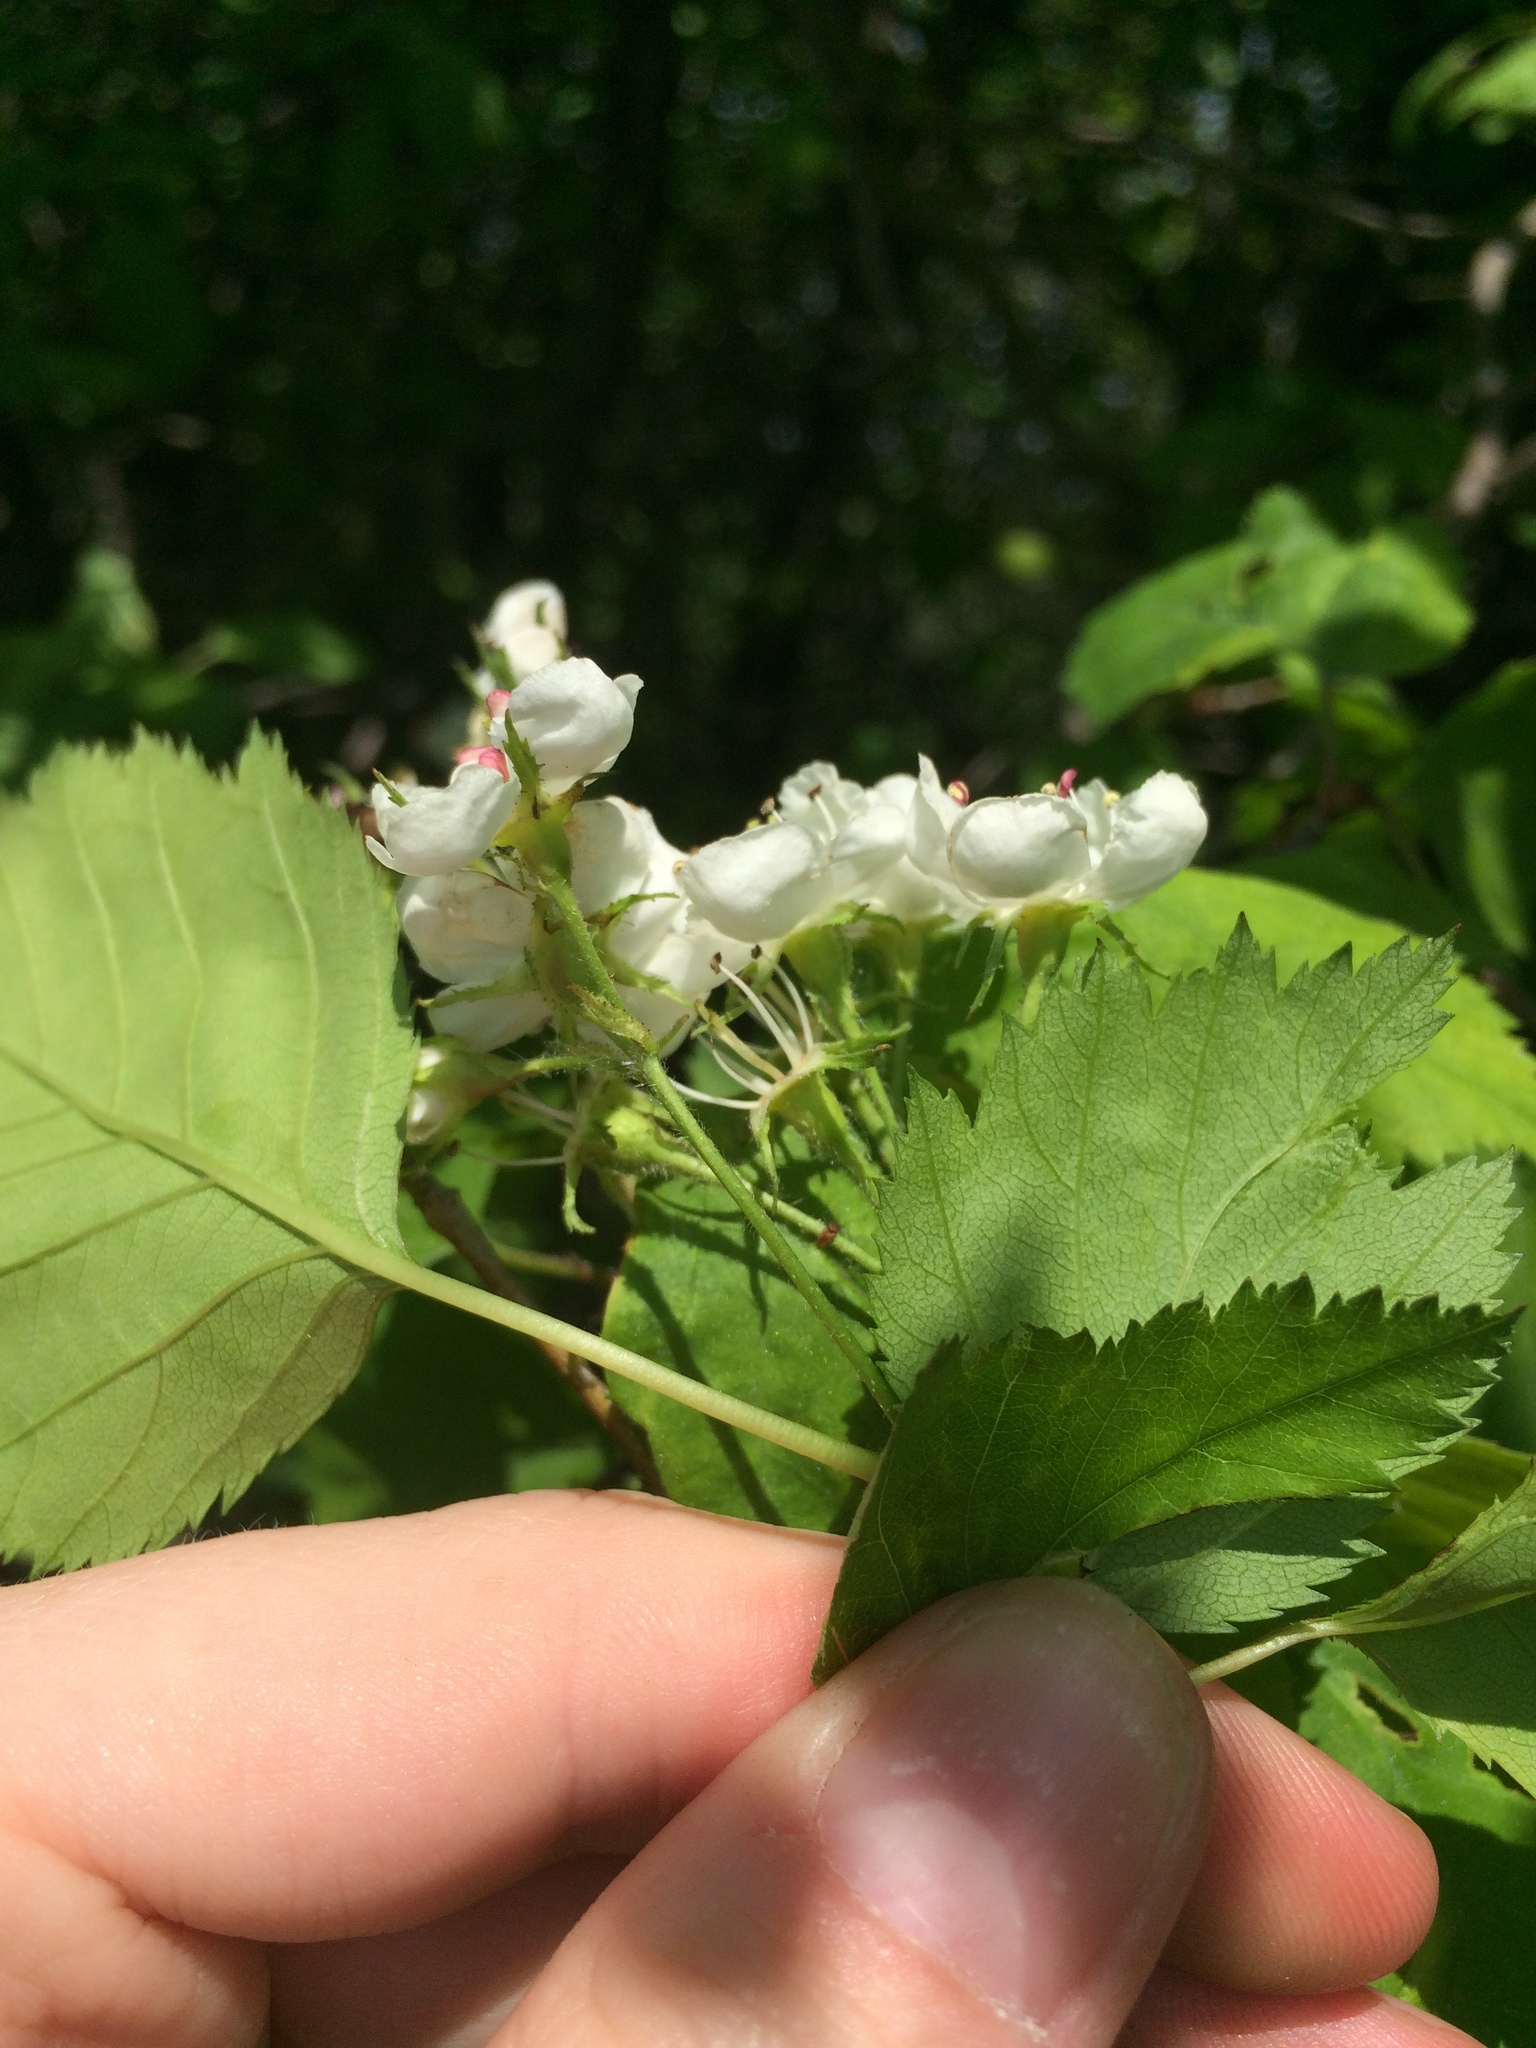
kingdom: Plantae
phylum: Tracheophyta
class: Magnoliopsida
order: Rosales
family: Rosaceae
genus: Crataegus
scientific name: Crataegus fluviatilis
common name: Fort sheridan hawthorn
